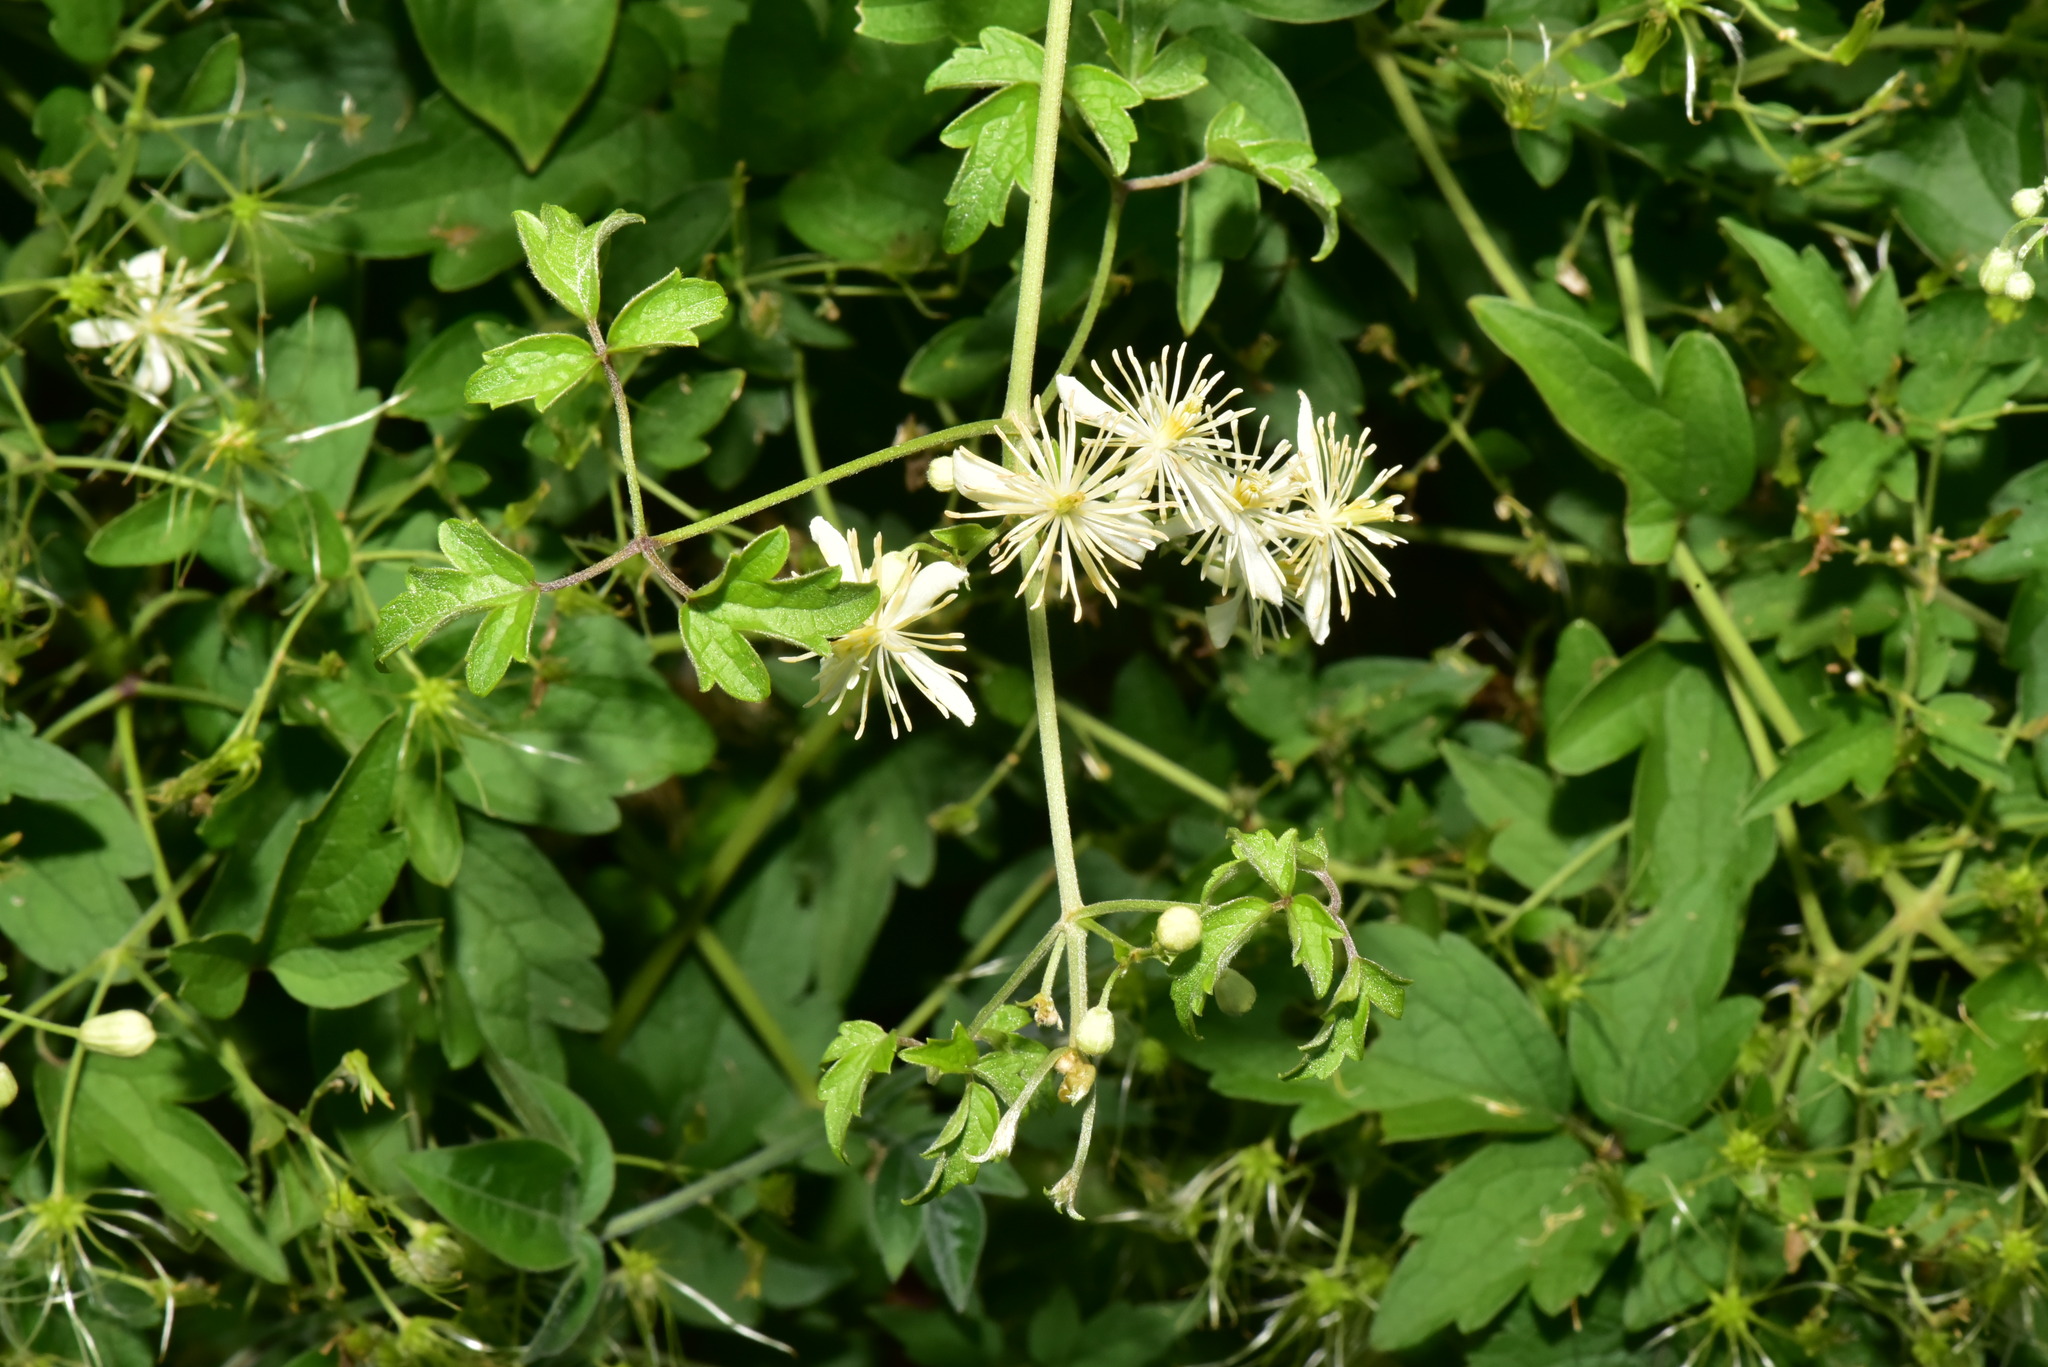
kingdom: Plantae
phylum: Tracheophyta
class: Magnoliopsida
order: Ranunculales
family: Ranunculaceae
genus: Clematis
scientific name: Clematis grata
